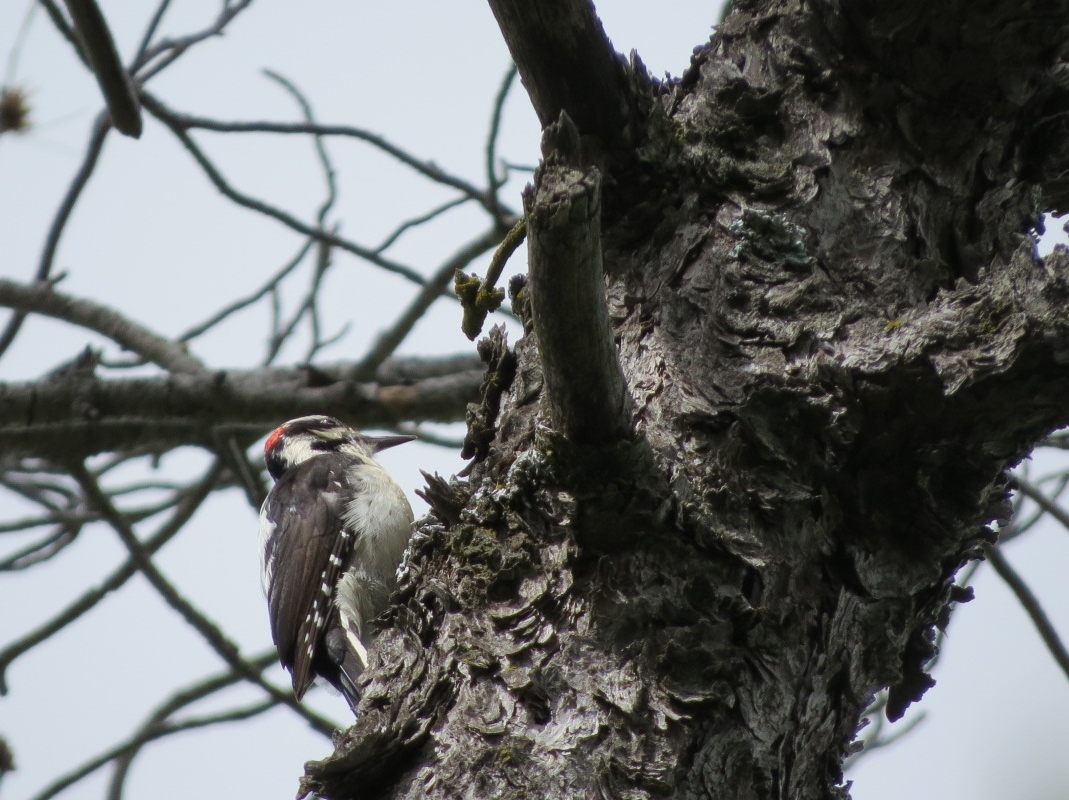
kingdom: Animalia
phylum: Chordata
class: Aves
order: Piciformes
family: Picidae
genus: Leuconotopicus
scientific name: Leuconotopicus villosus
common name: Hairy woodpecker
